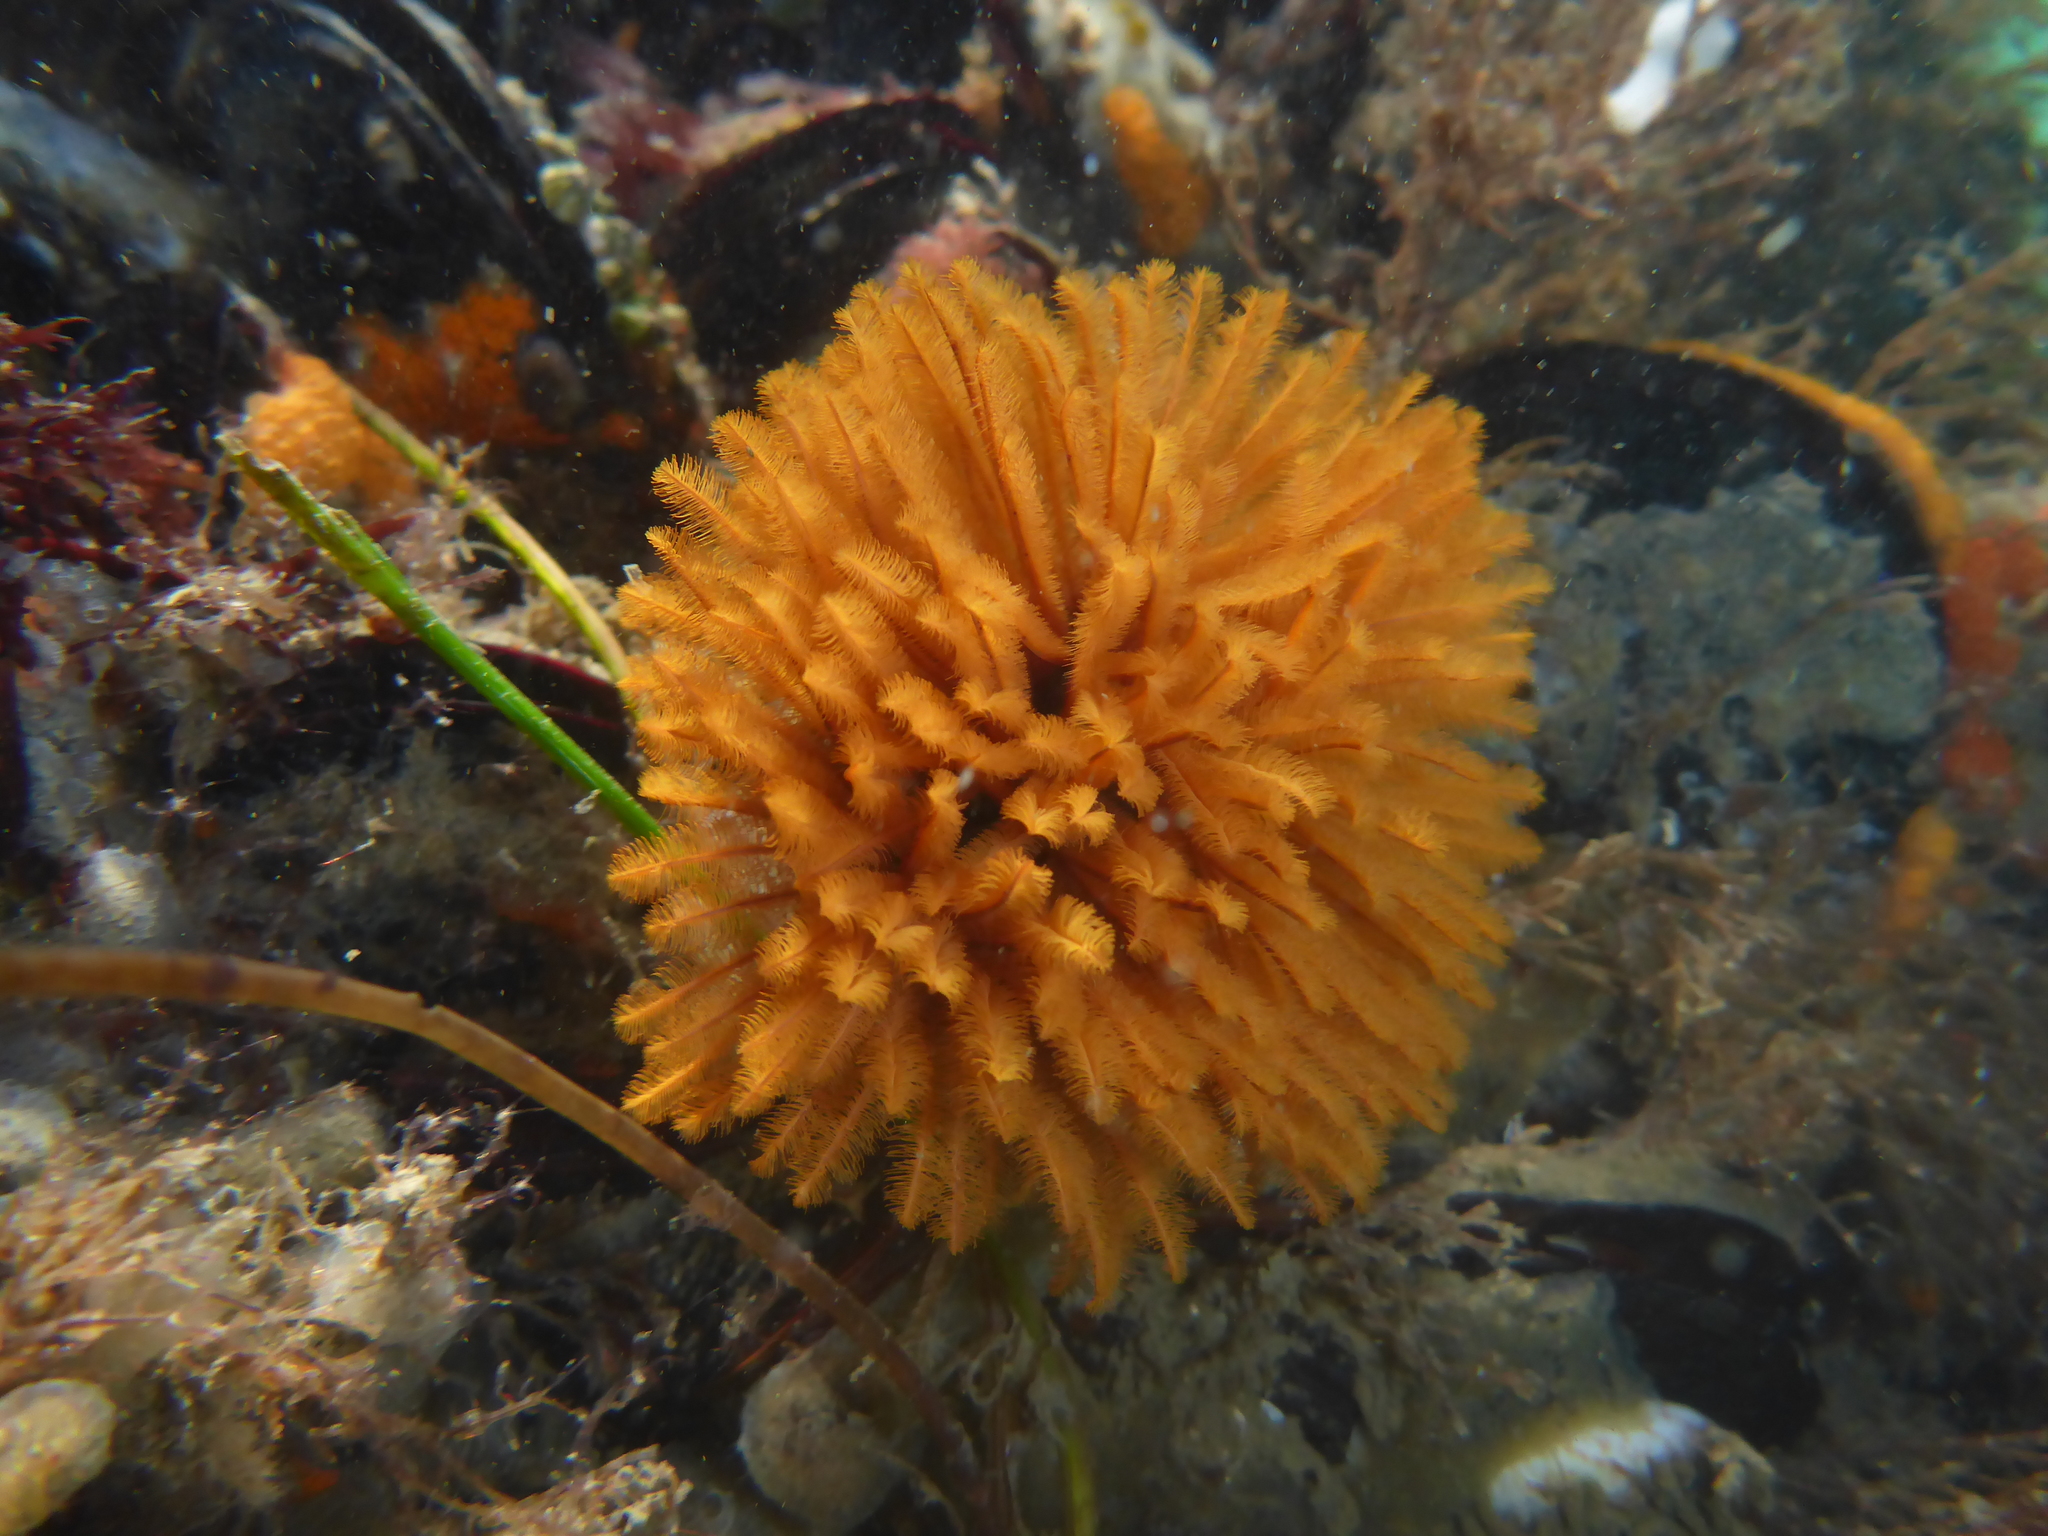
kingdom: Animalia
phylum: Annelida
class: Polychaeta
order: Sabellida
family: Sabellidae
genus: Eudistylia
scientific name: Eudistylia polymorpha
